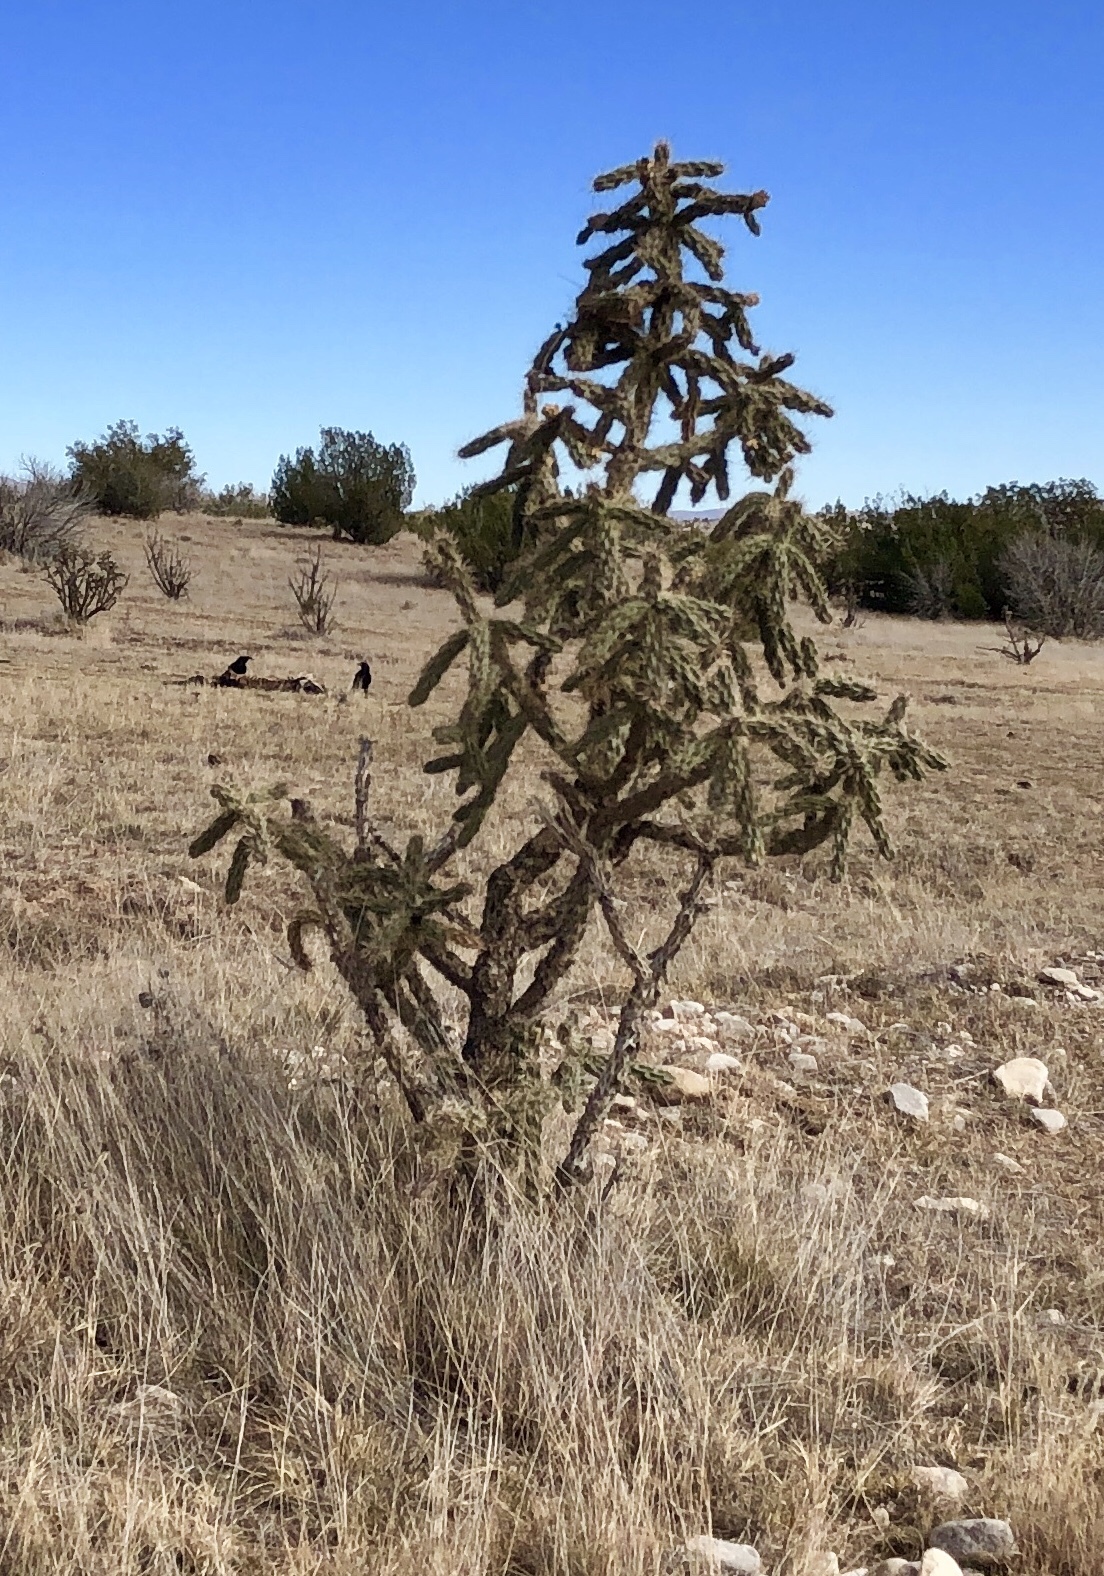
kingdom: Plantae
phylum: Tracheophyta
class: Magnoliopsida
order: Caryophyllales
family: Cactaceae
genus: Cylindropuntia
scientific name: Cylindropuntia imbricata
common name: Candelabrum cactus
